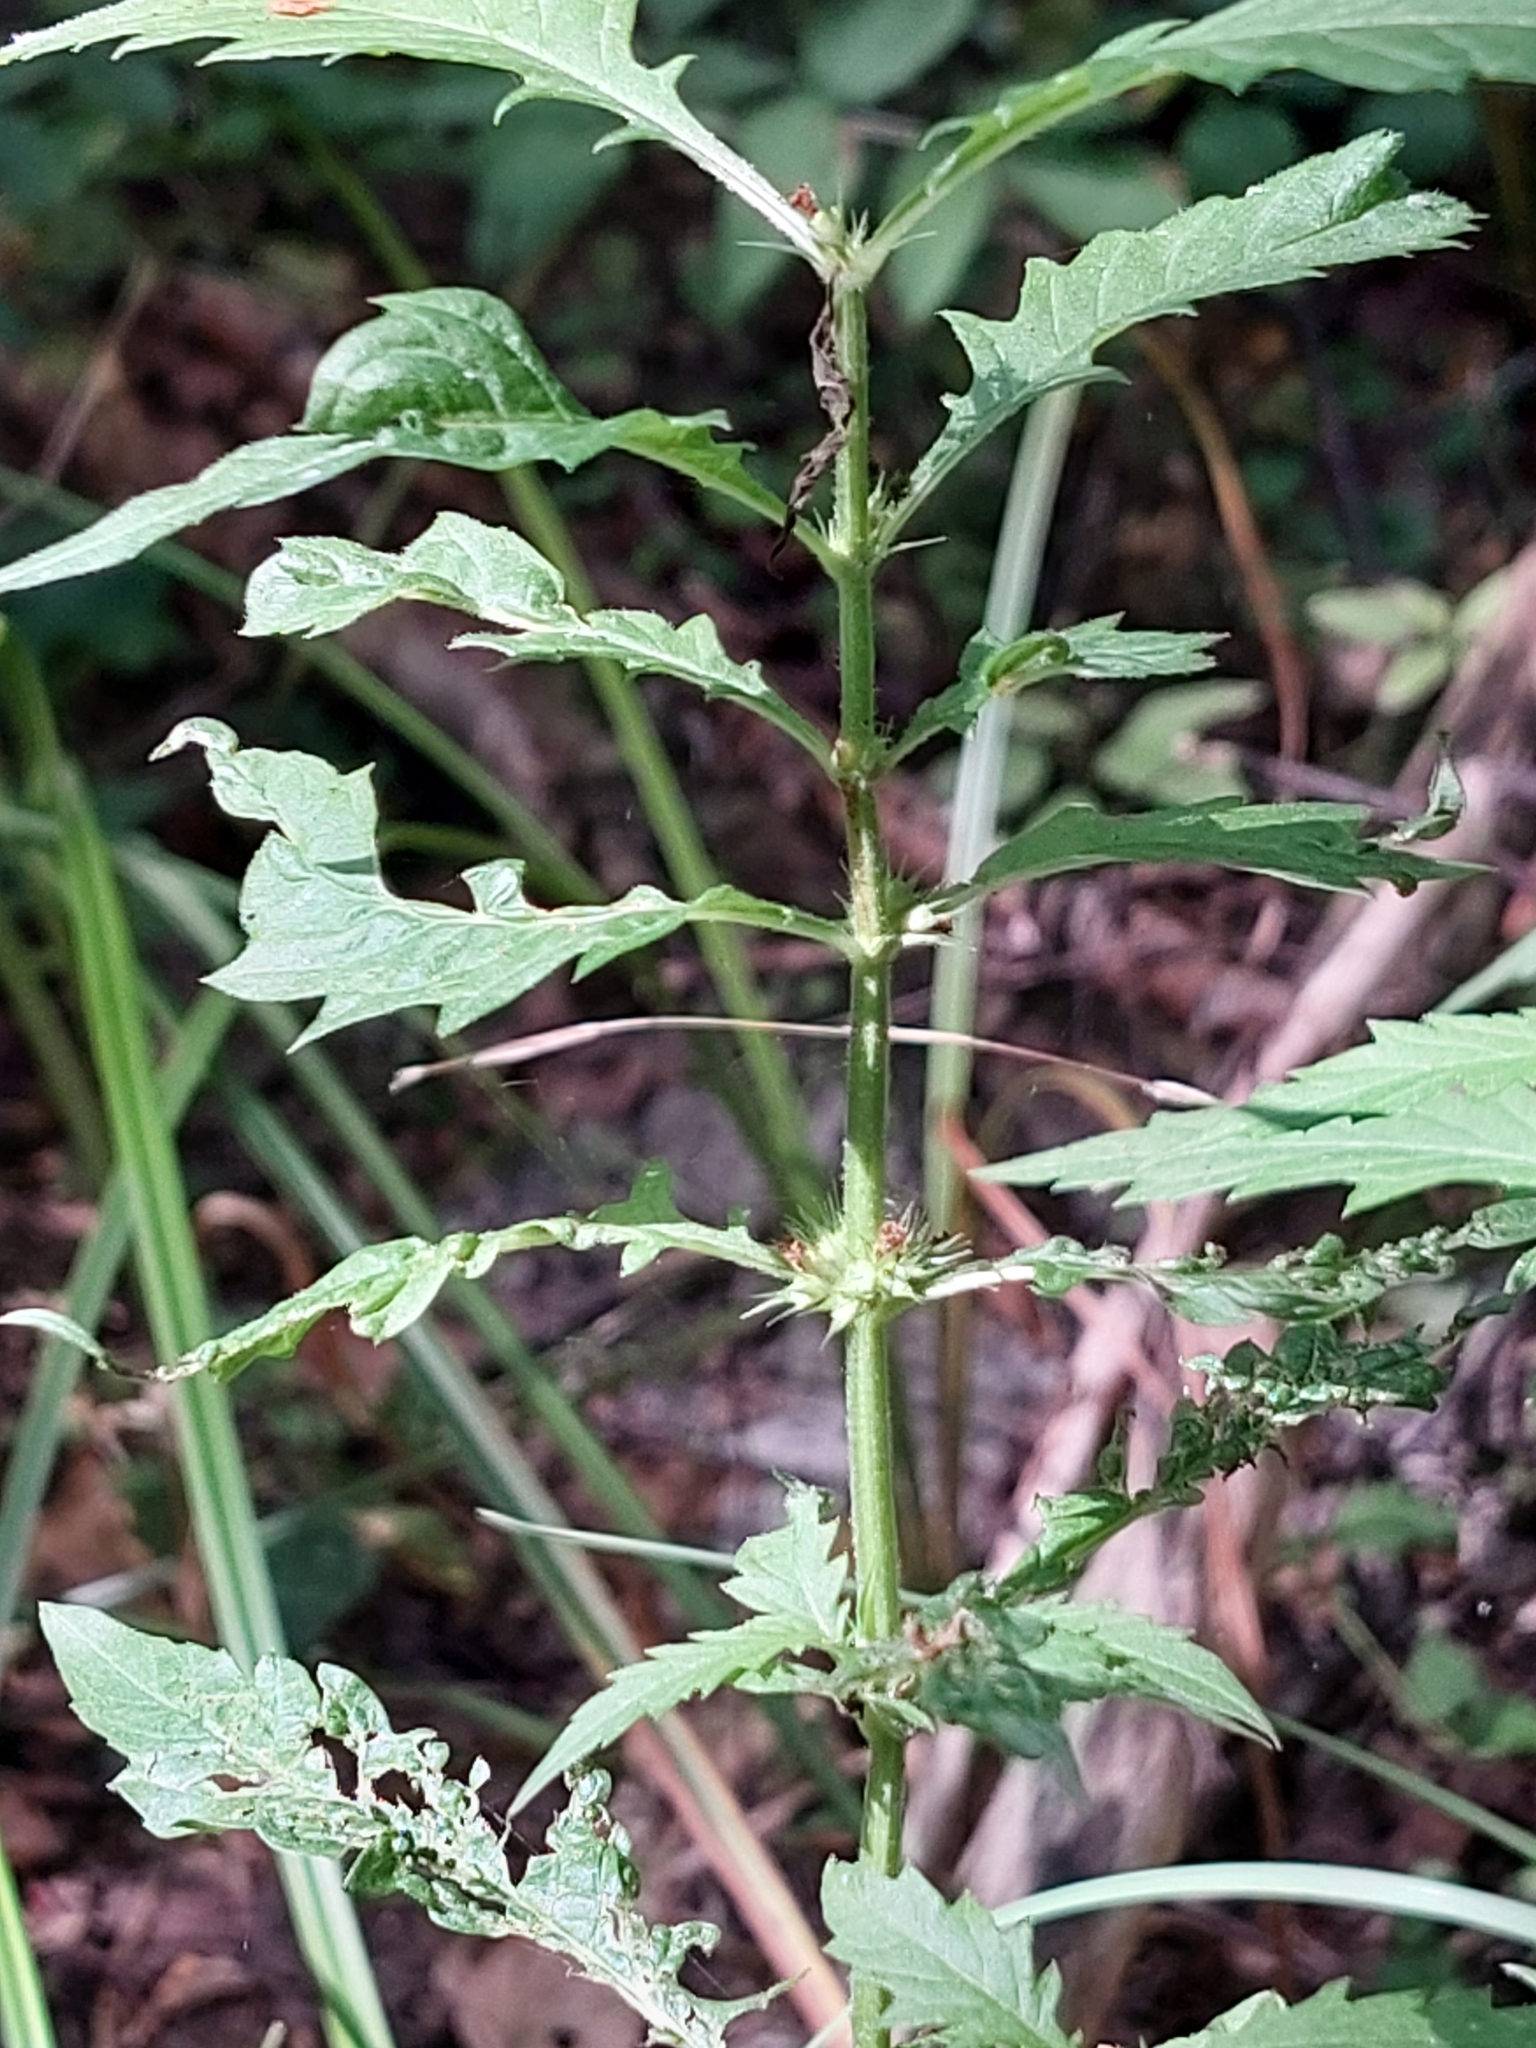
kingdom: Plantae
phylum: Tracheophyta
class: Magnoliopsida
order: Lamiales
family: Lamiaceae
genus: Lycopus
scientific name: Lycopus europaeus
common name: European bugleweed
